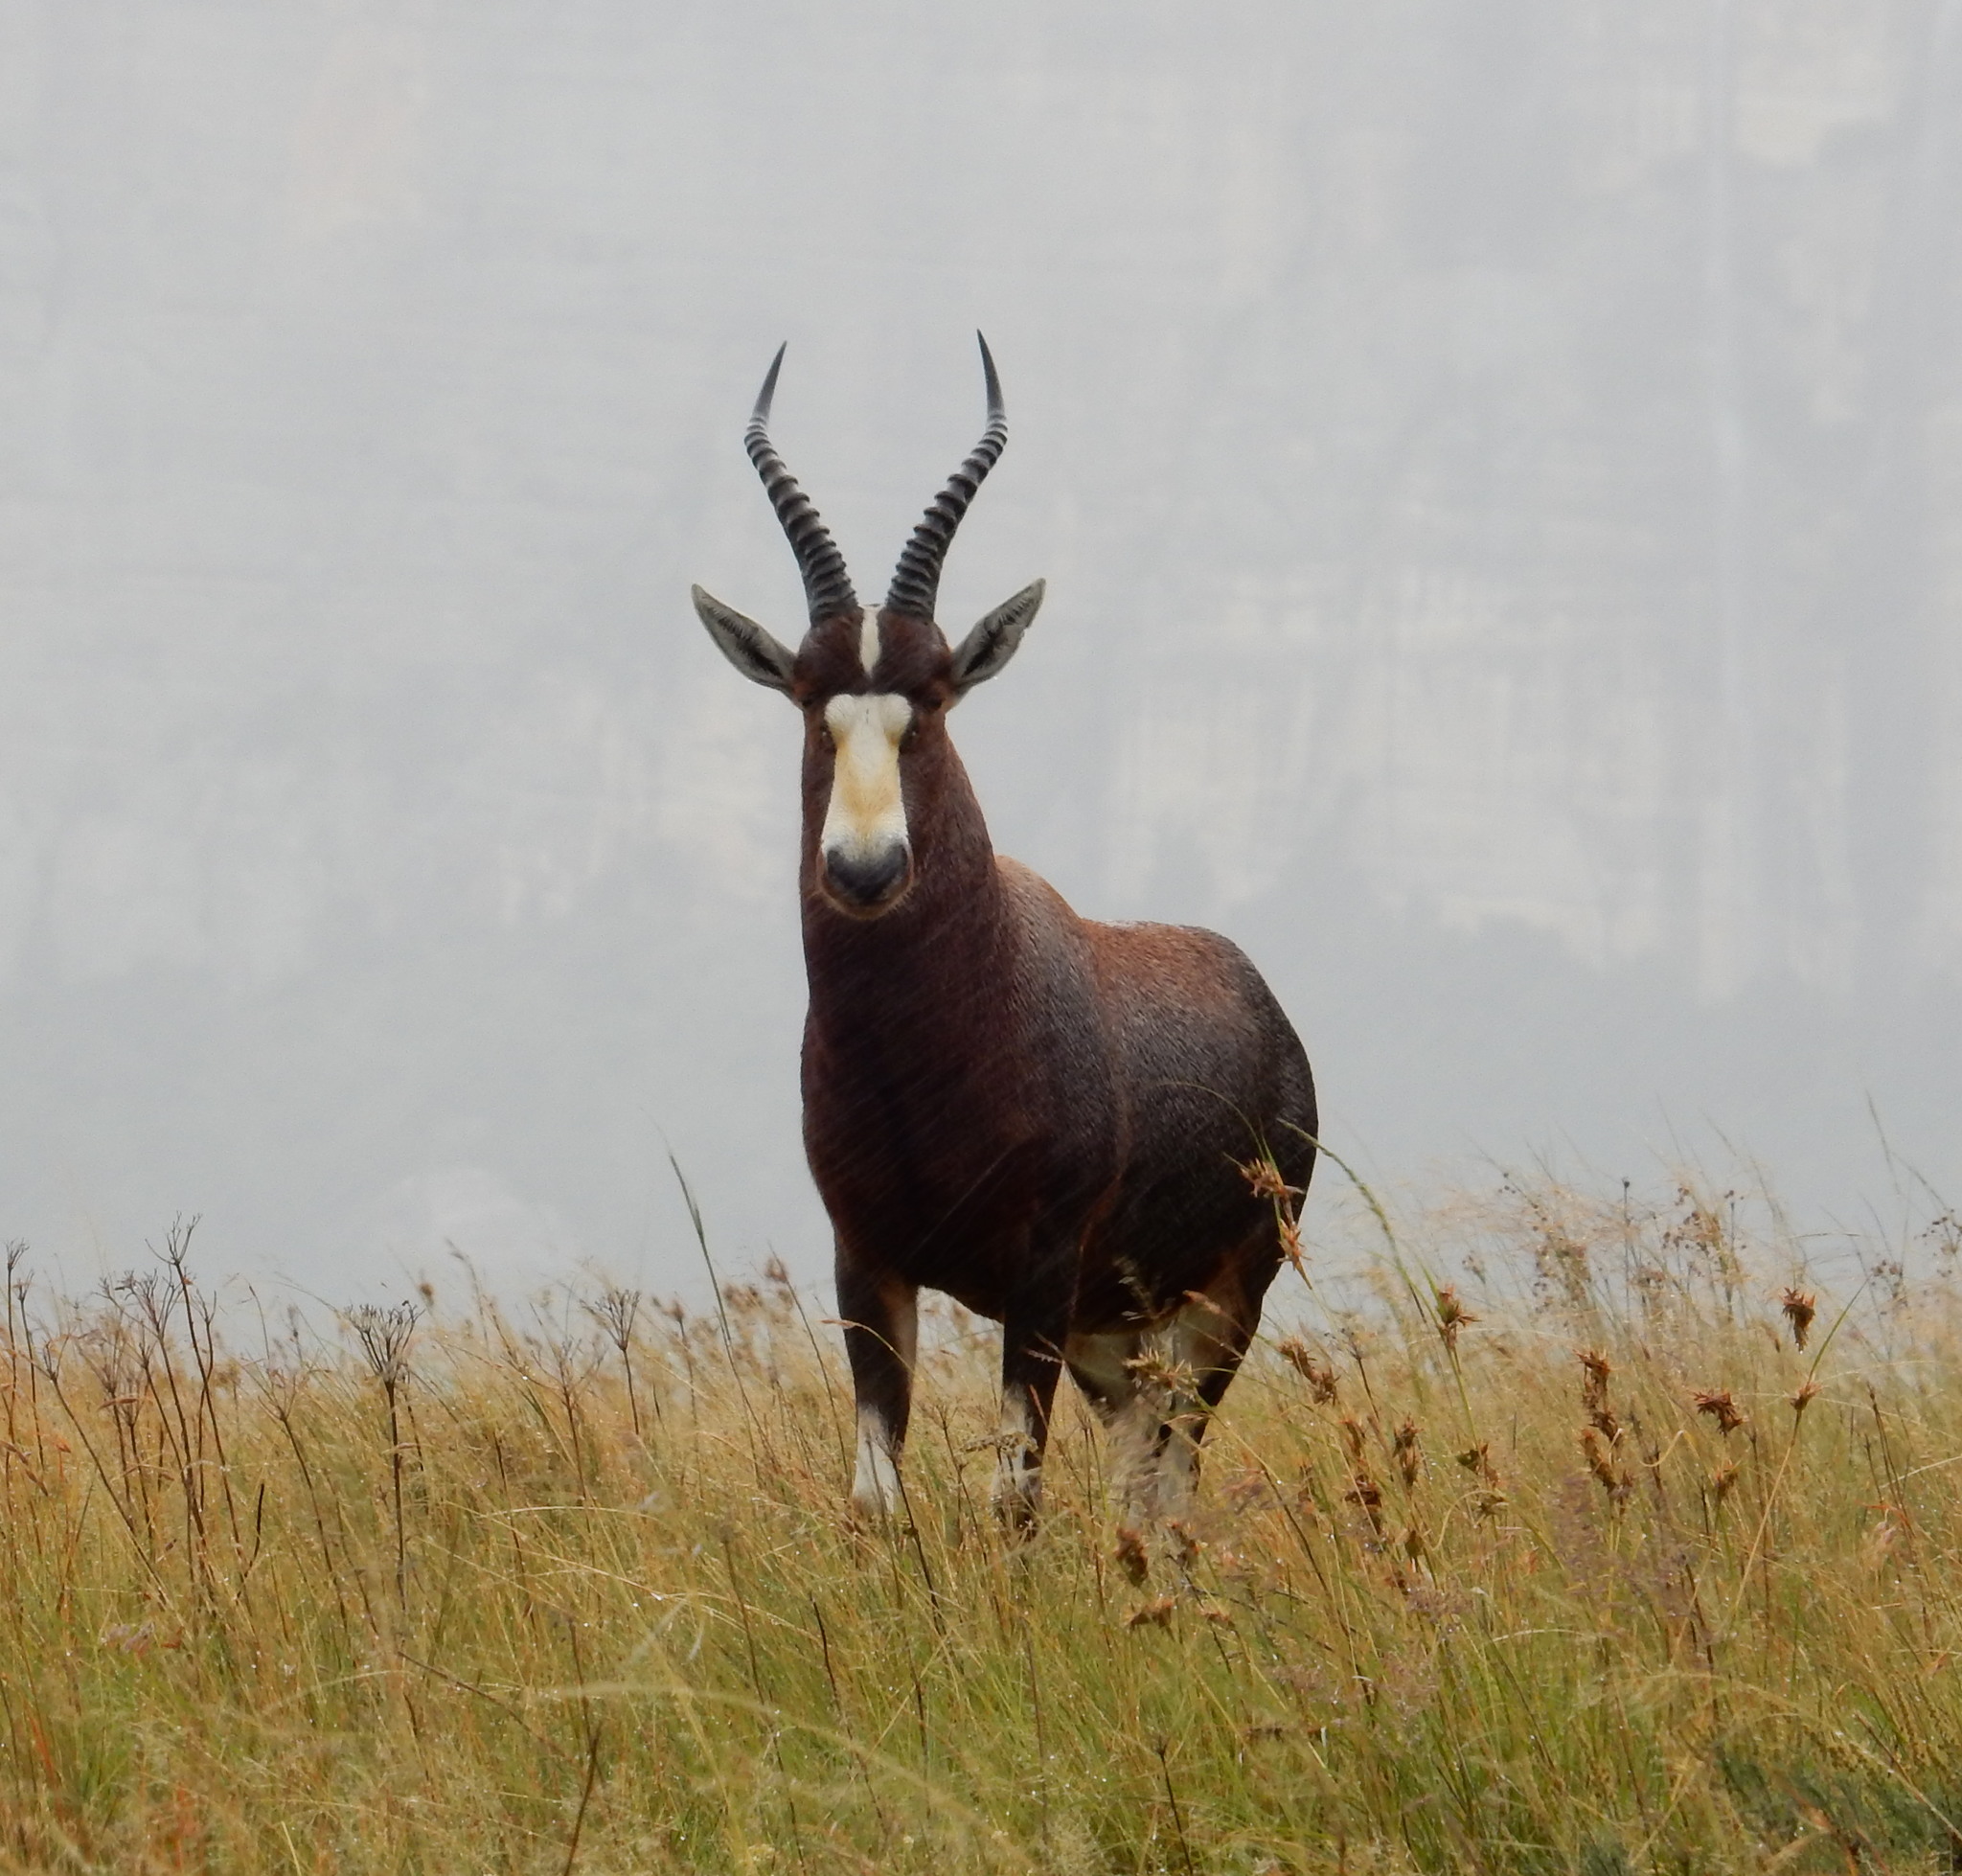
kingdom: Animalia
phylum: Chordata
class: Mammalia
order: Artiodactyla
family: Bovidae
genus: Damaliscus
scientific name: Damaliscus pygargus
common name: Bontebok
